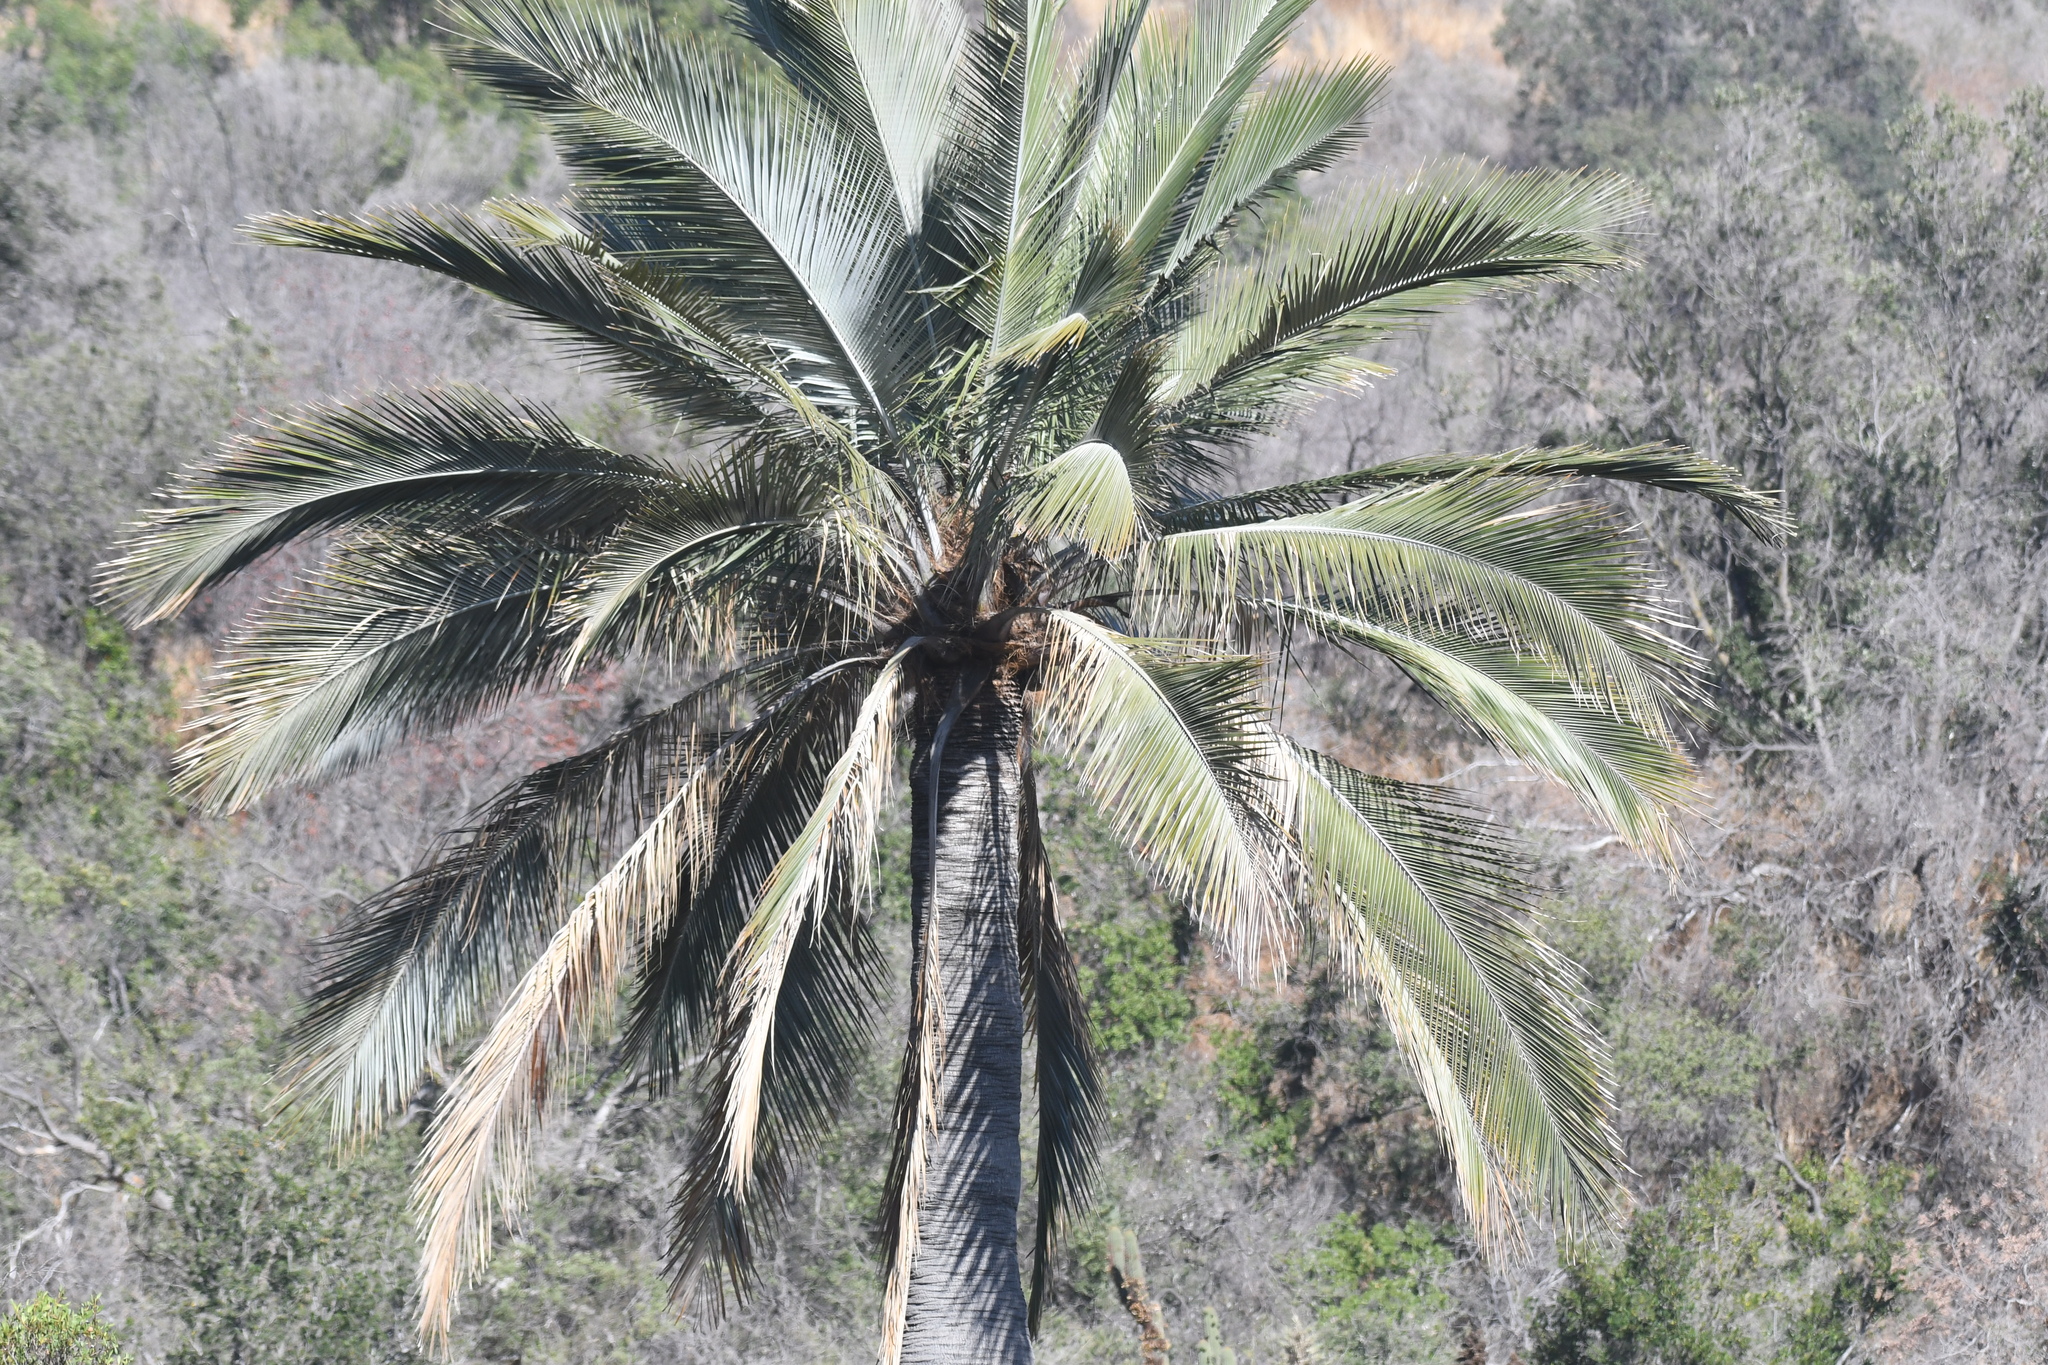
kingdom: Plantae
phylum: Tracheophyta
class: Liliopsida
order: Arecales
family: Arecaceae
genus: Jubaea
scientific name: Jubaea chilensis
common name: Coquito palm
